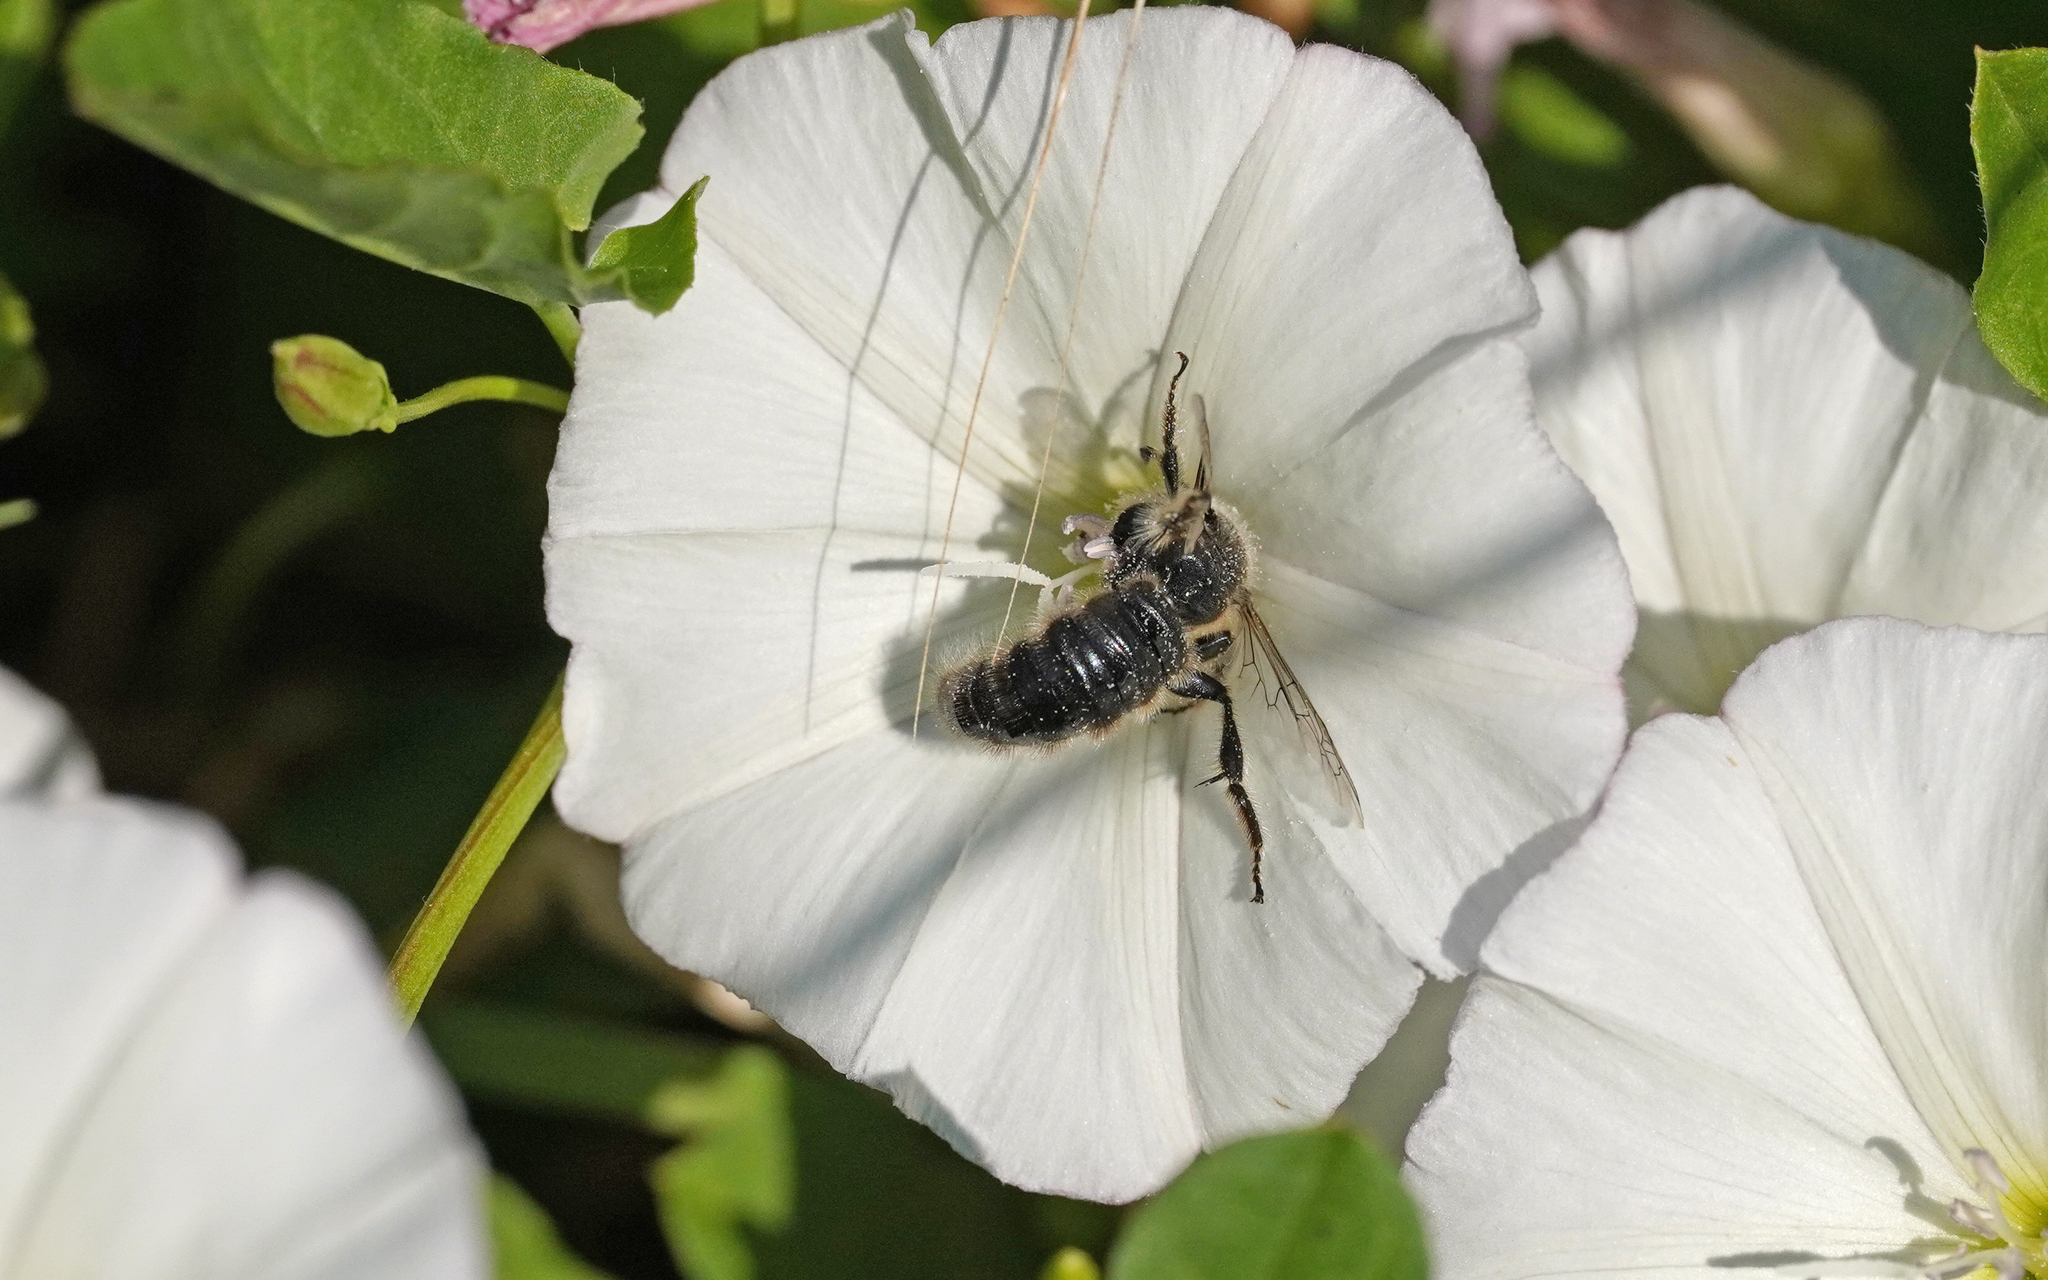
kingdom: Animalia
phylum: Arthropoda
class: Insecta
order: Hymenoptera
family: Halictidae
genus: Systropha
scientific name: Systropha planidens
